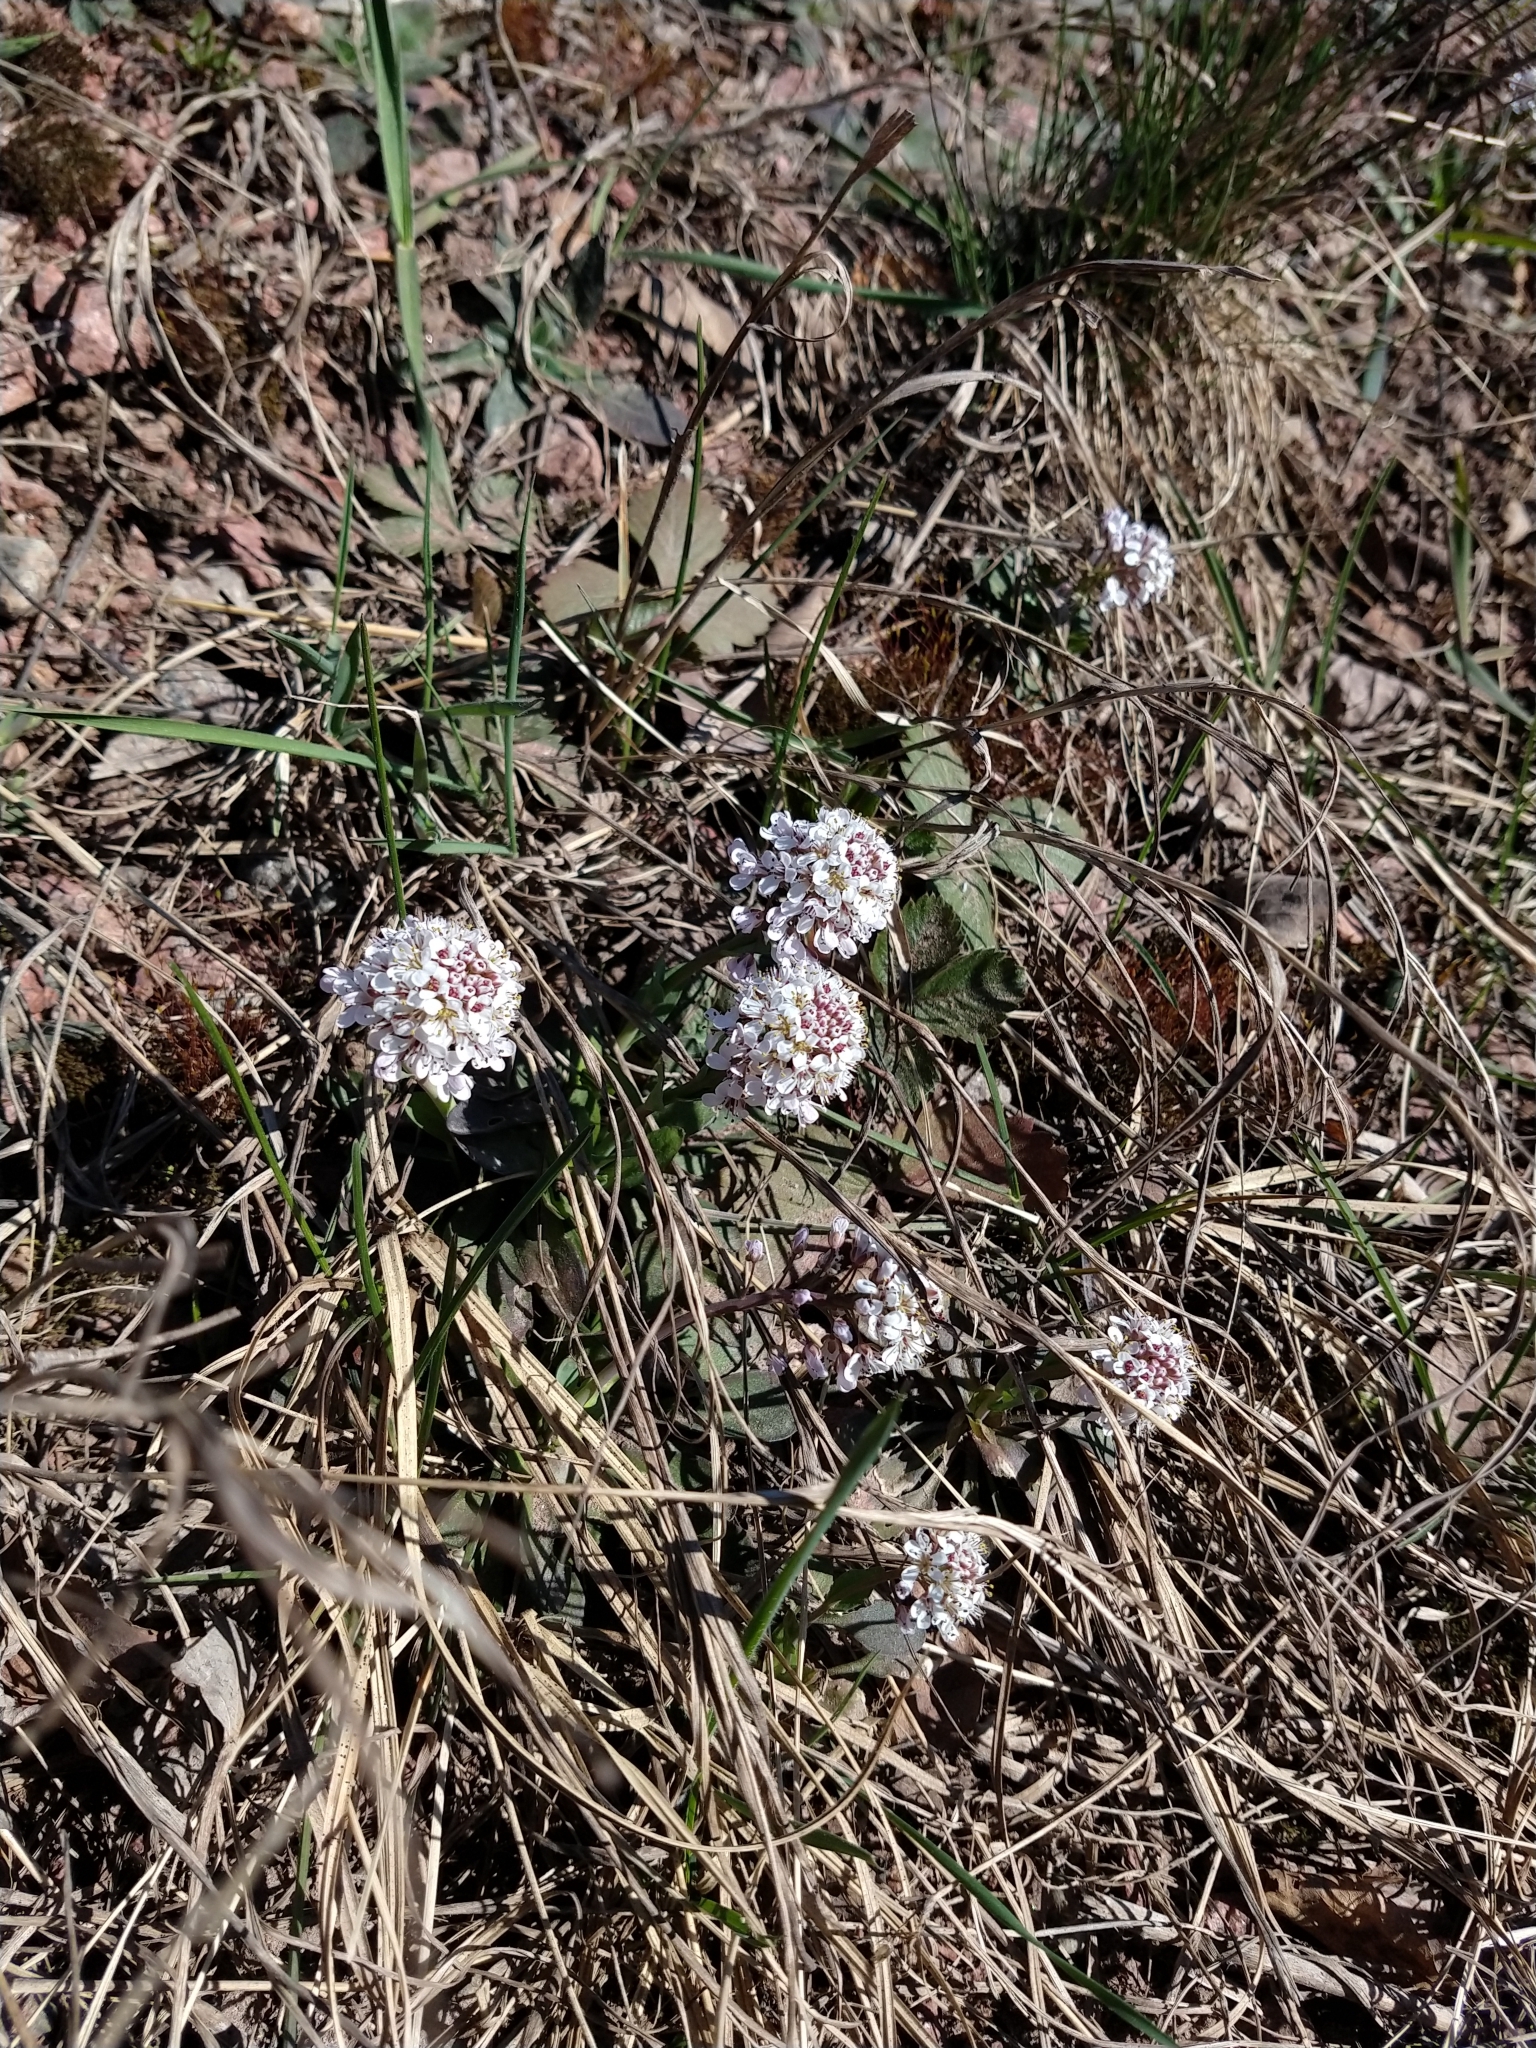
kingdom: Plantae
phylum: Tracheophyta
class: Magnoliopsida
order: Brassicales
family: Brassicaceae
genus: Noccaea
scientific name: Noccaea caerulescens
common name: Alpine pennycress
